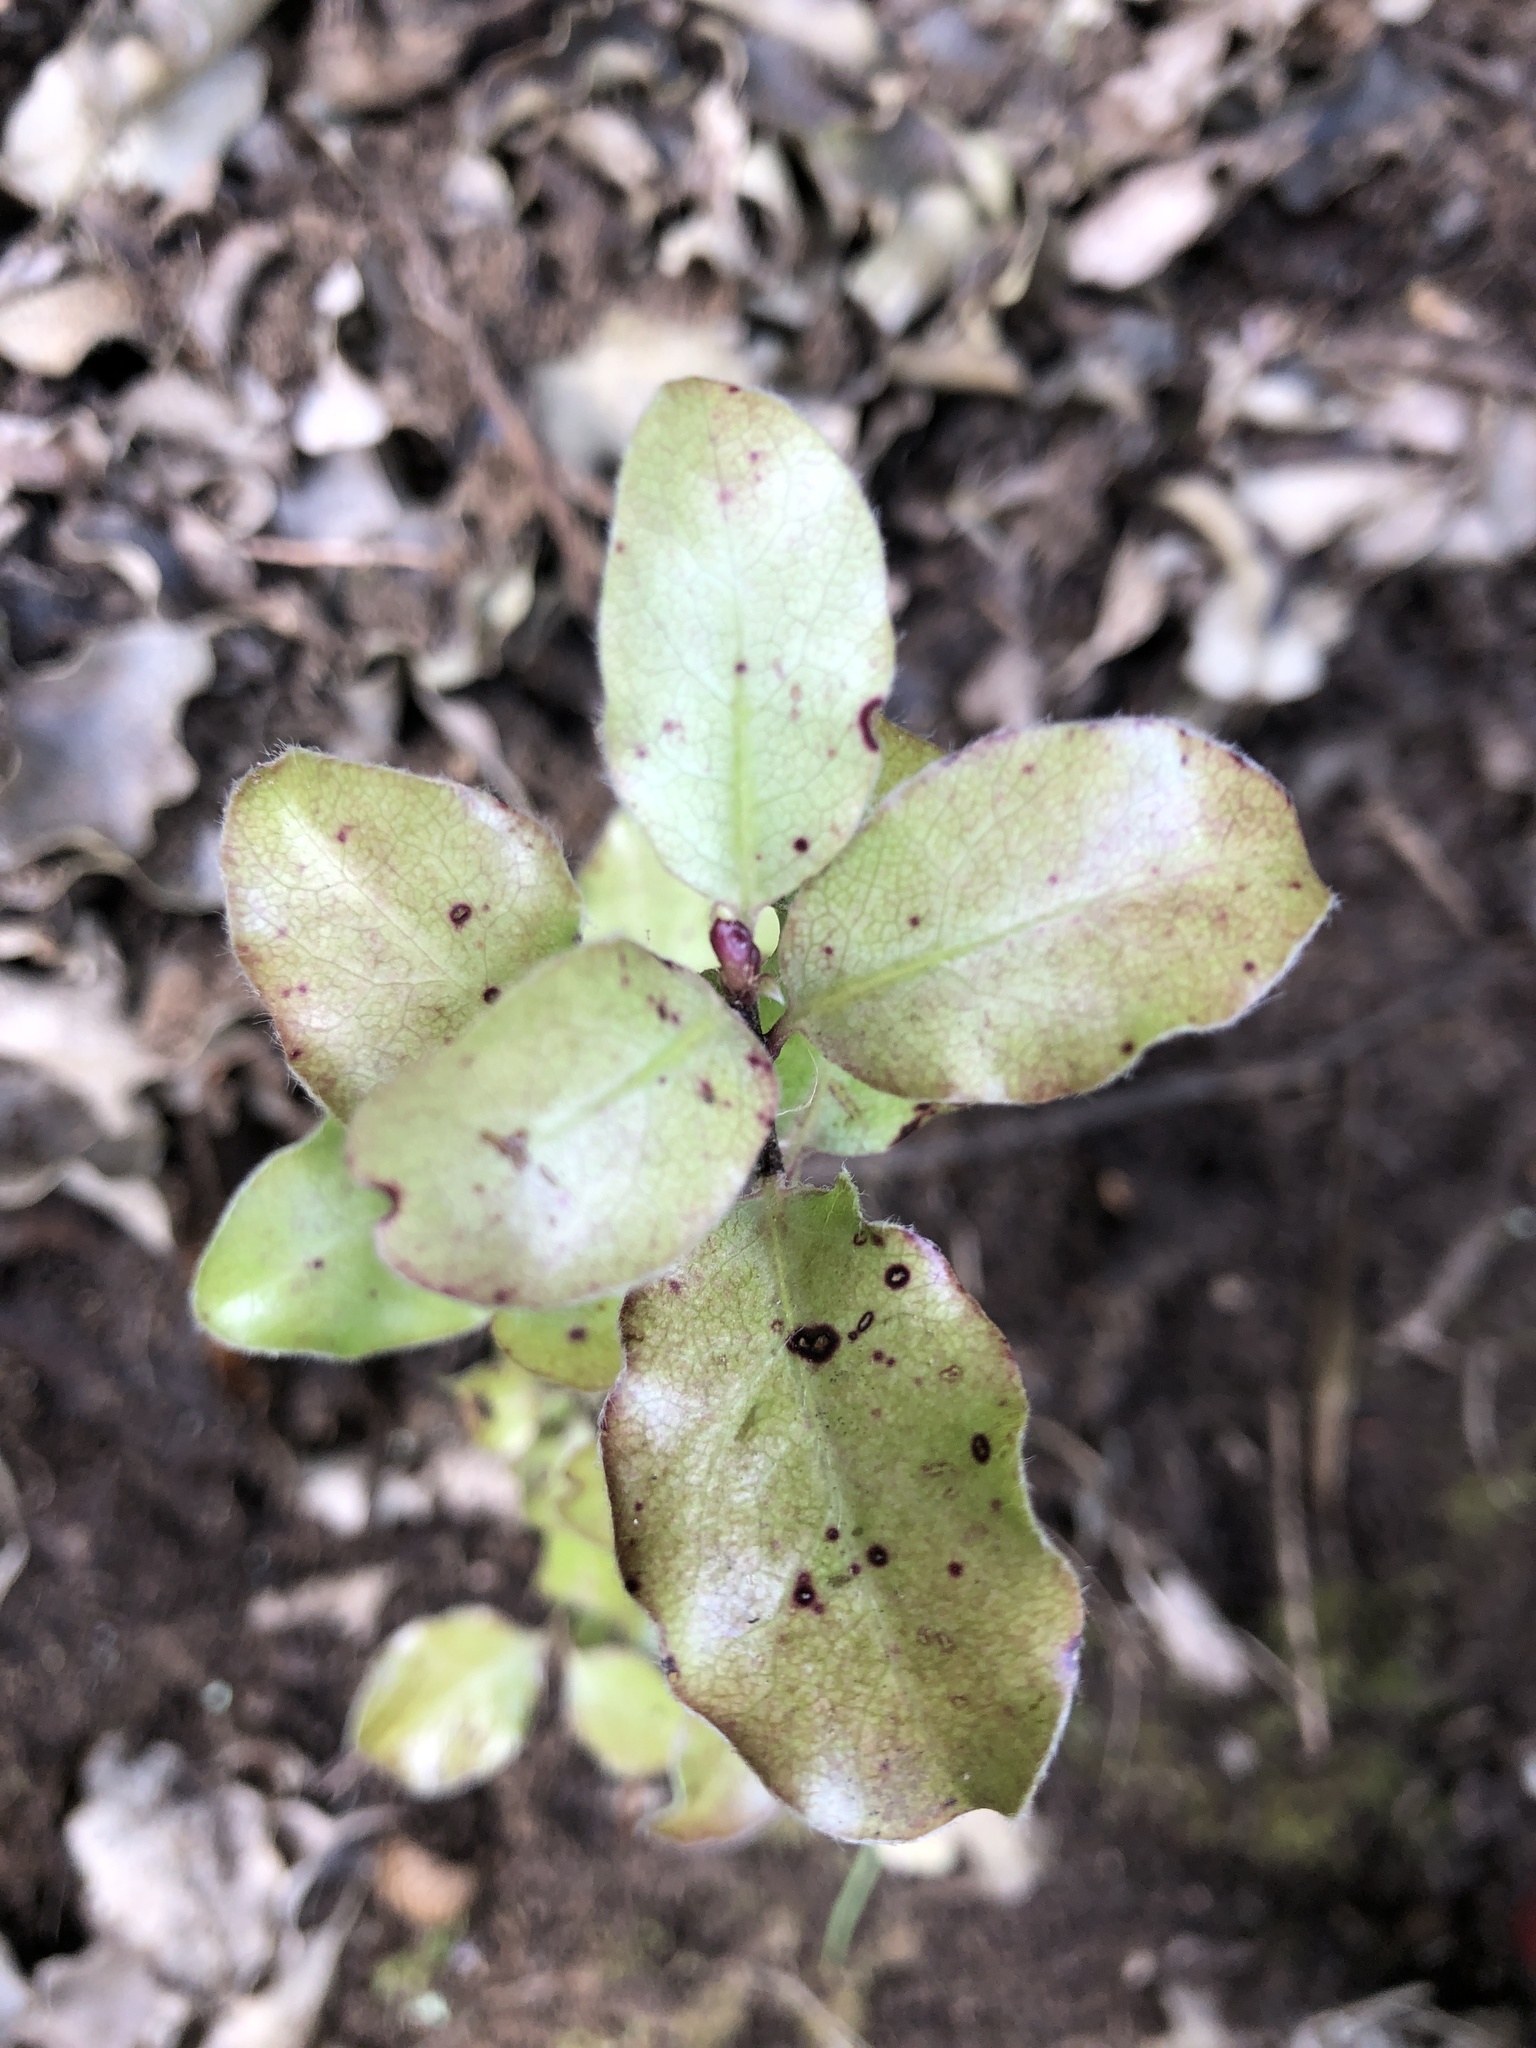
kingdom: Plantae
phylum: Tracheophyta
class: Magnoliopsida
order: Apiales
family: Pittosporaceae
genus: Pittosporum
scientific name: Pittosporum tenuifolium
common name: Kohuhu
